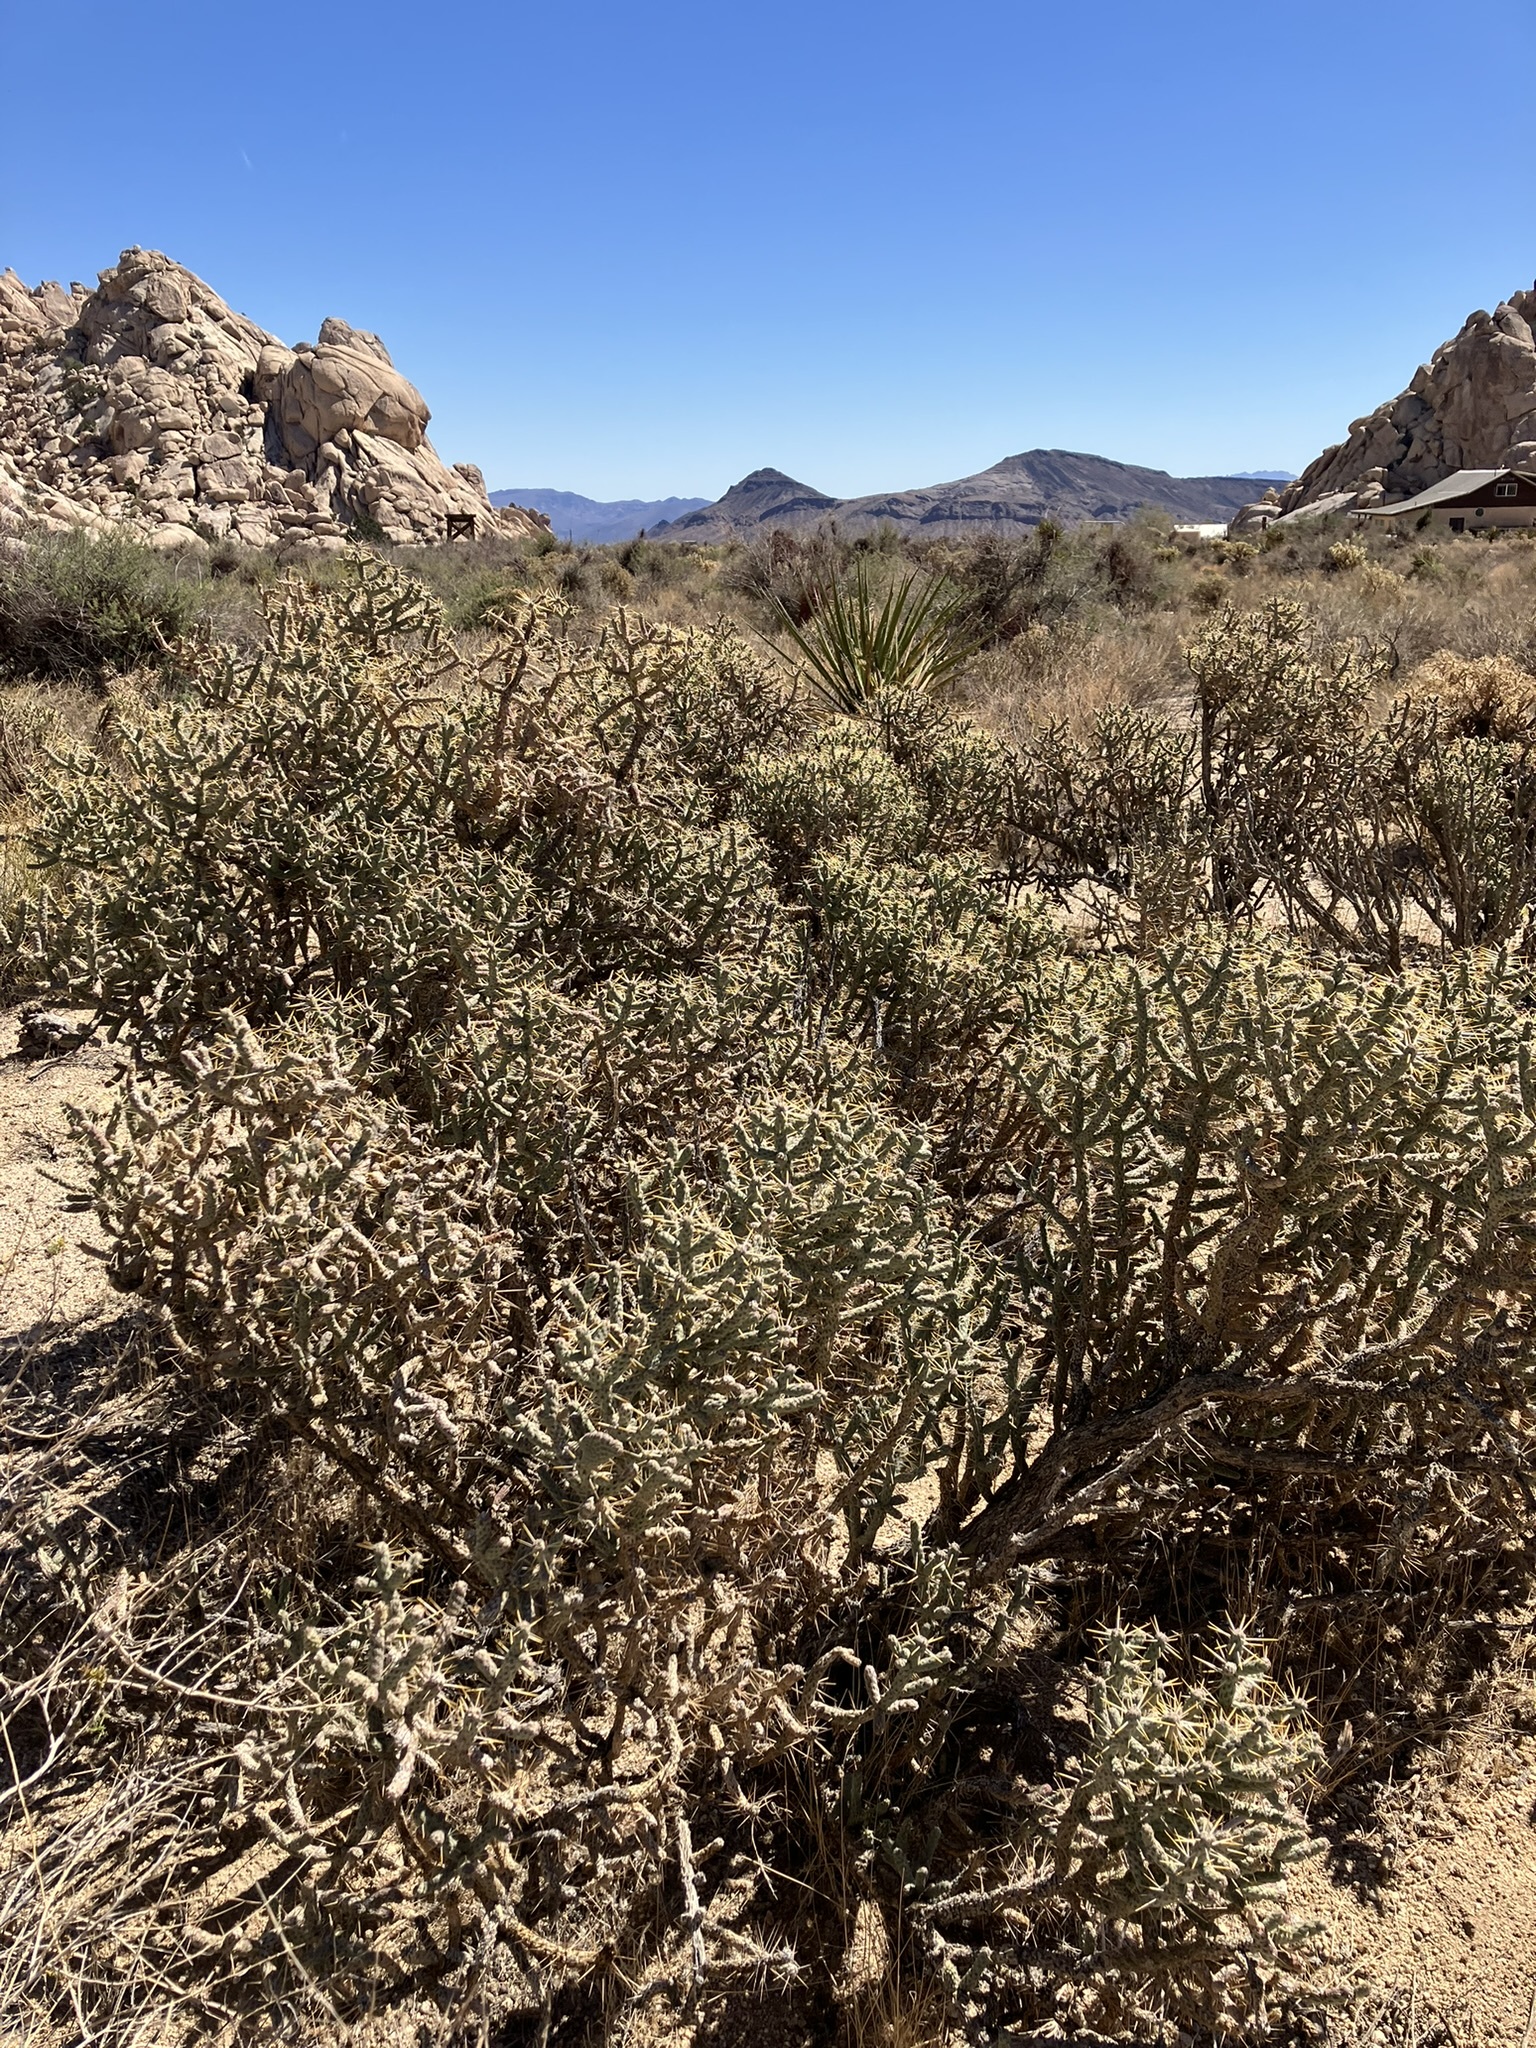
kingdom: Plantae
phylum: Tracheophyta
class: Magnoliopsida
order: Caryophyllales
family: Cactaceae
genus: Cylindropuntia
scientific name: Cylindropuntia ramosissima
